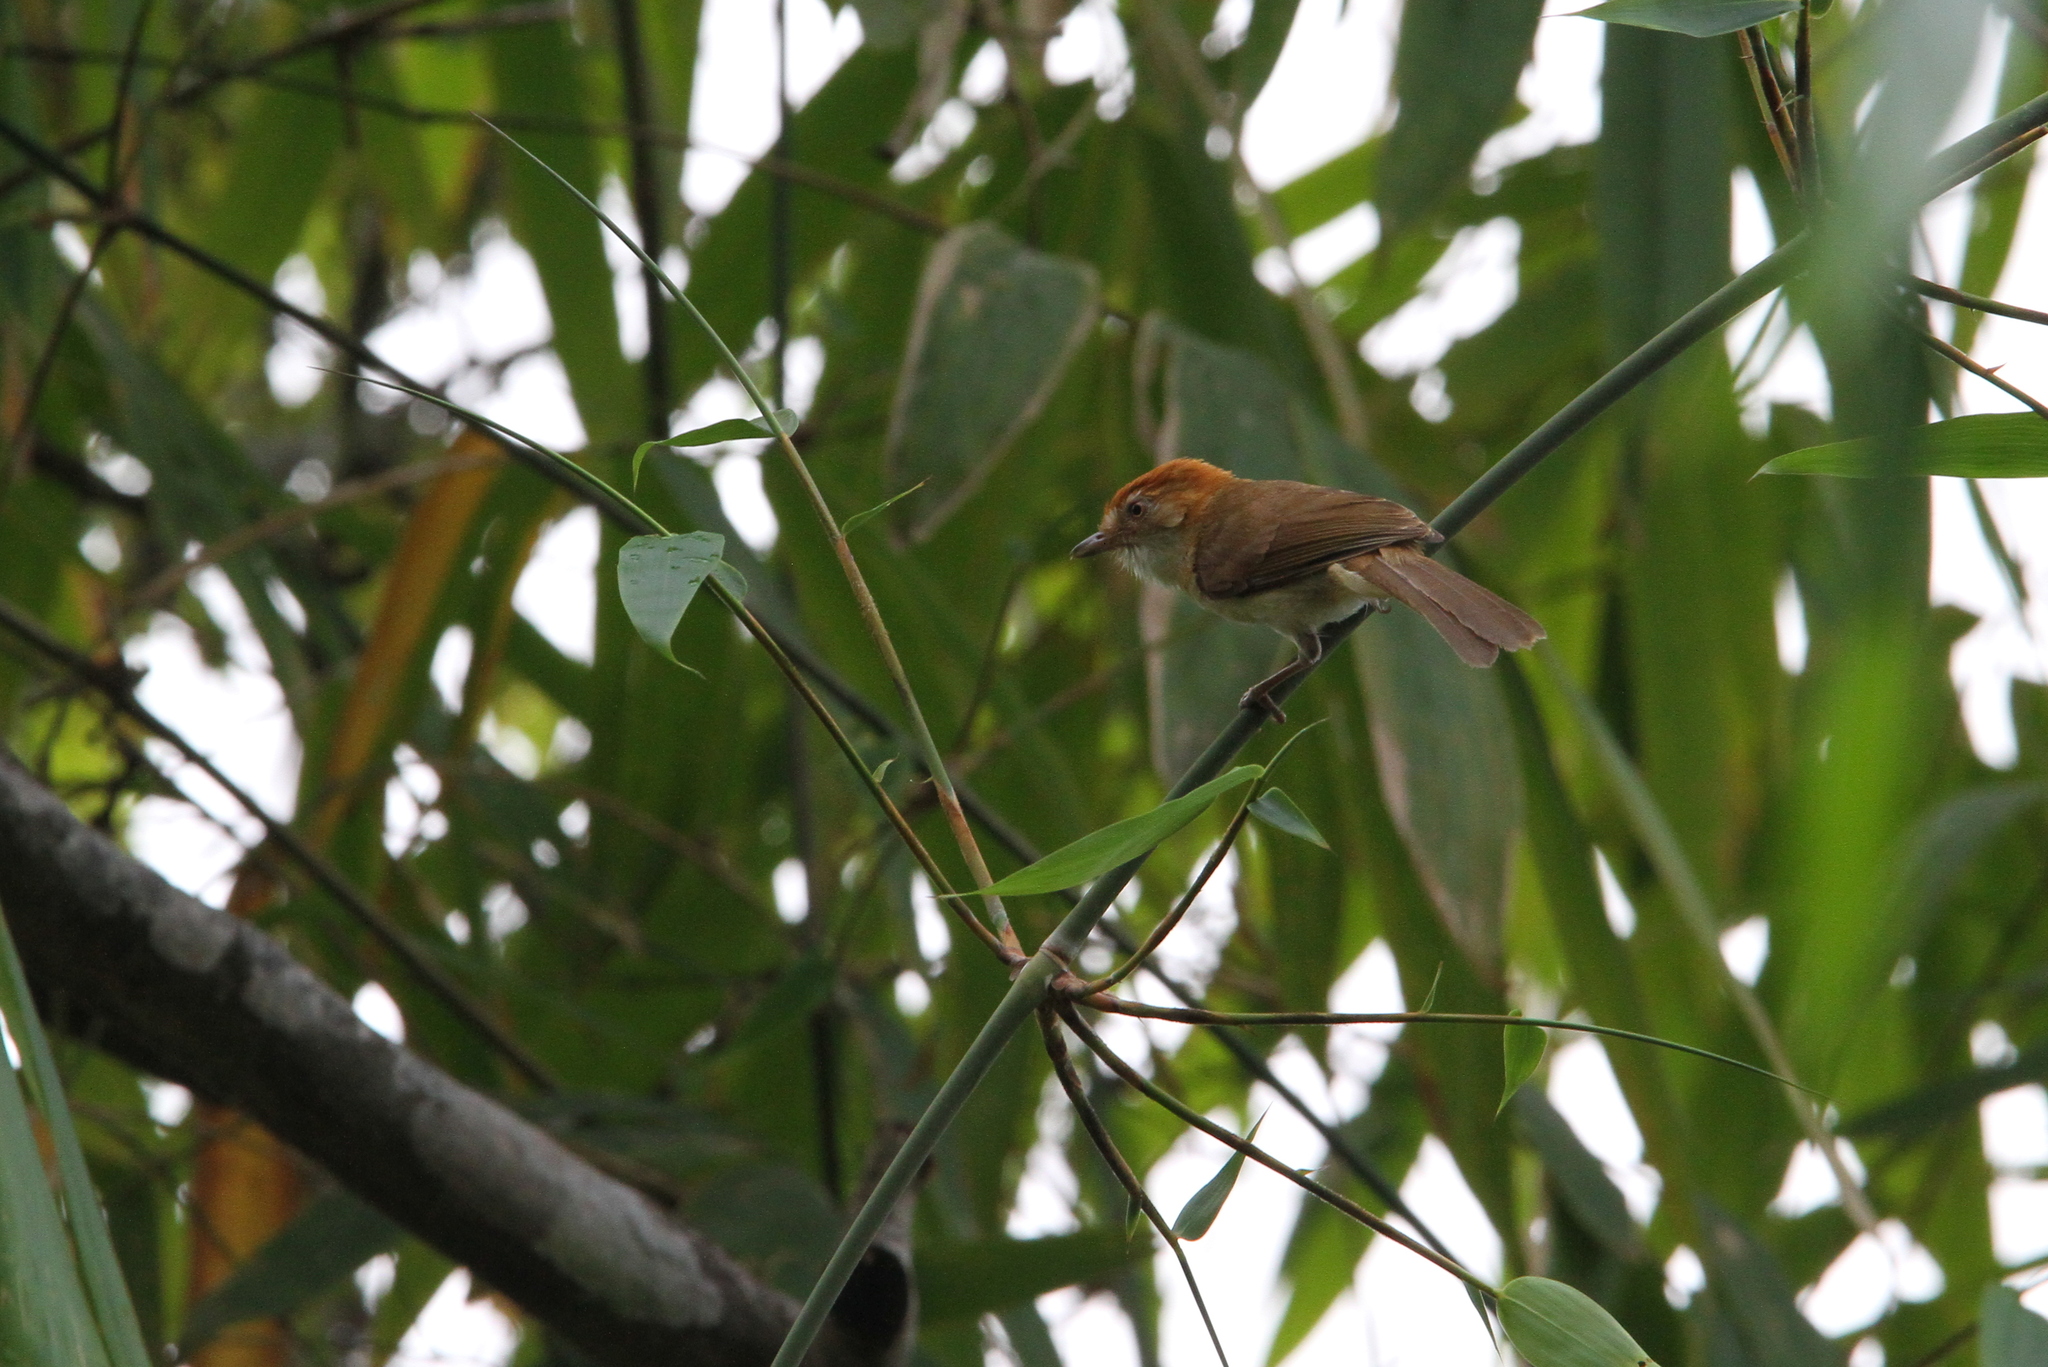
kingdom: Animalia
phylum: Chordata
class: Aves
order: Passeriformes
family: Pellorneidae
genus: Gampsorhynchus
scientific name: Gampsorhynchus rufulus
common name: White-hooded babbler
